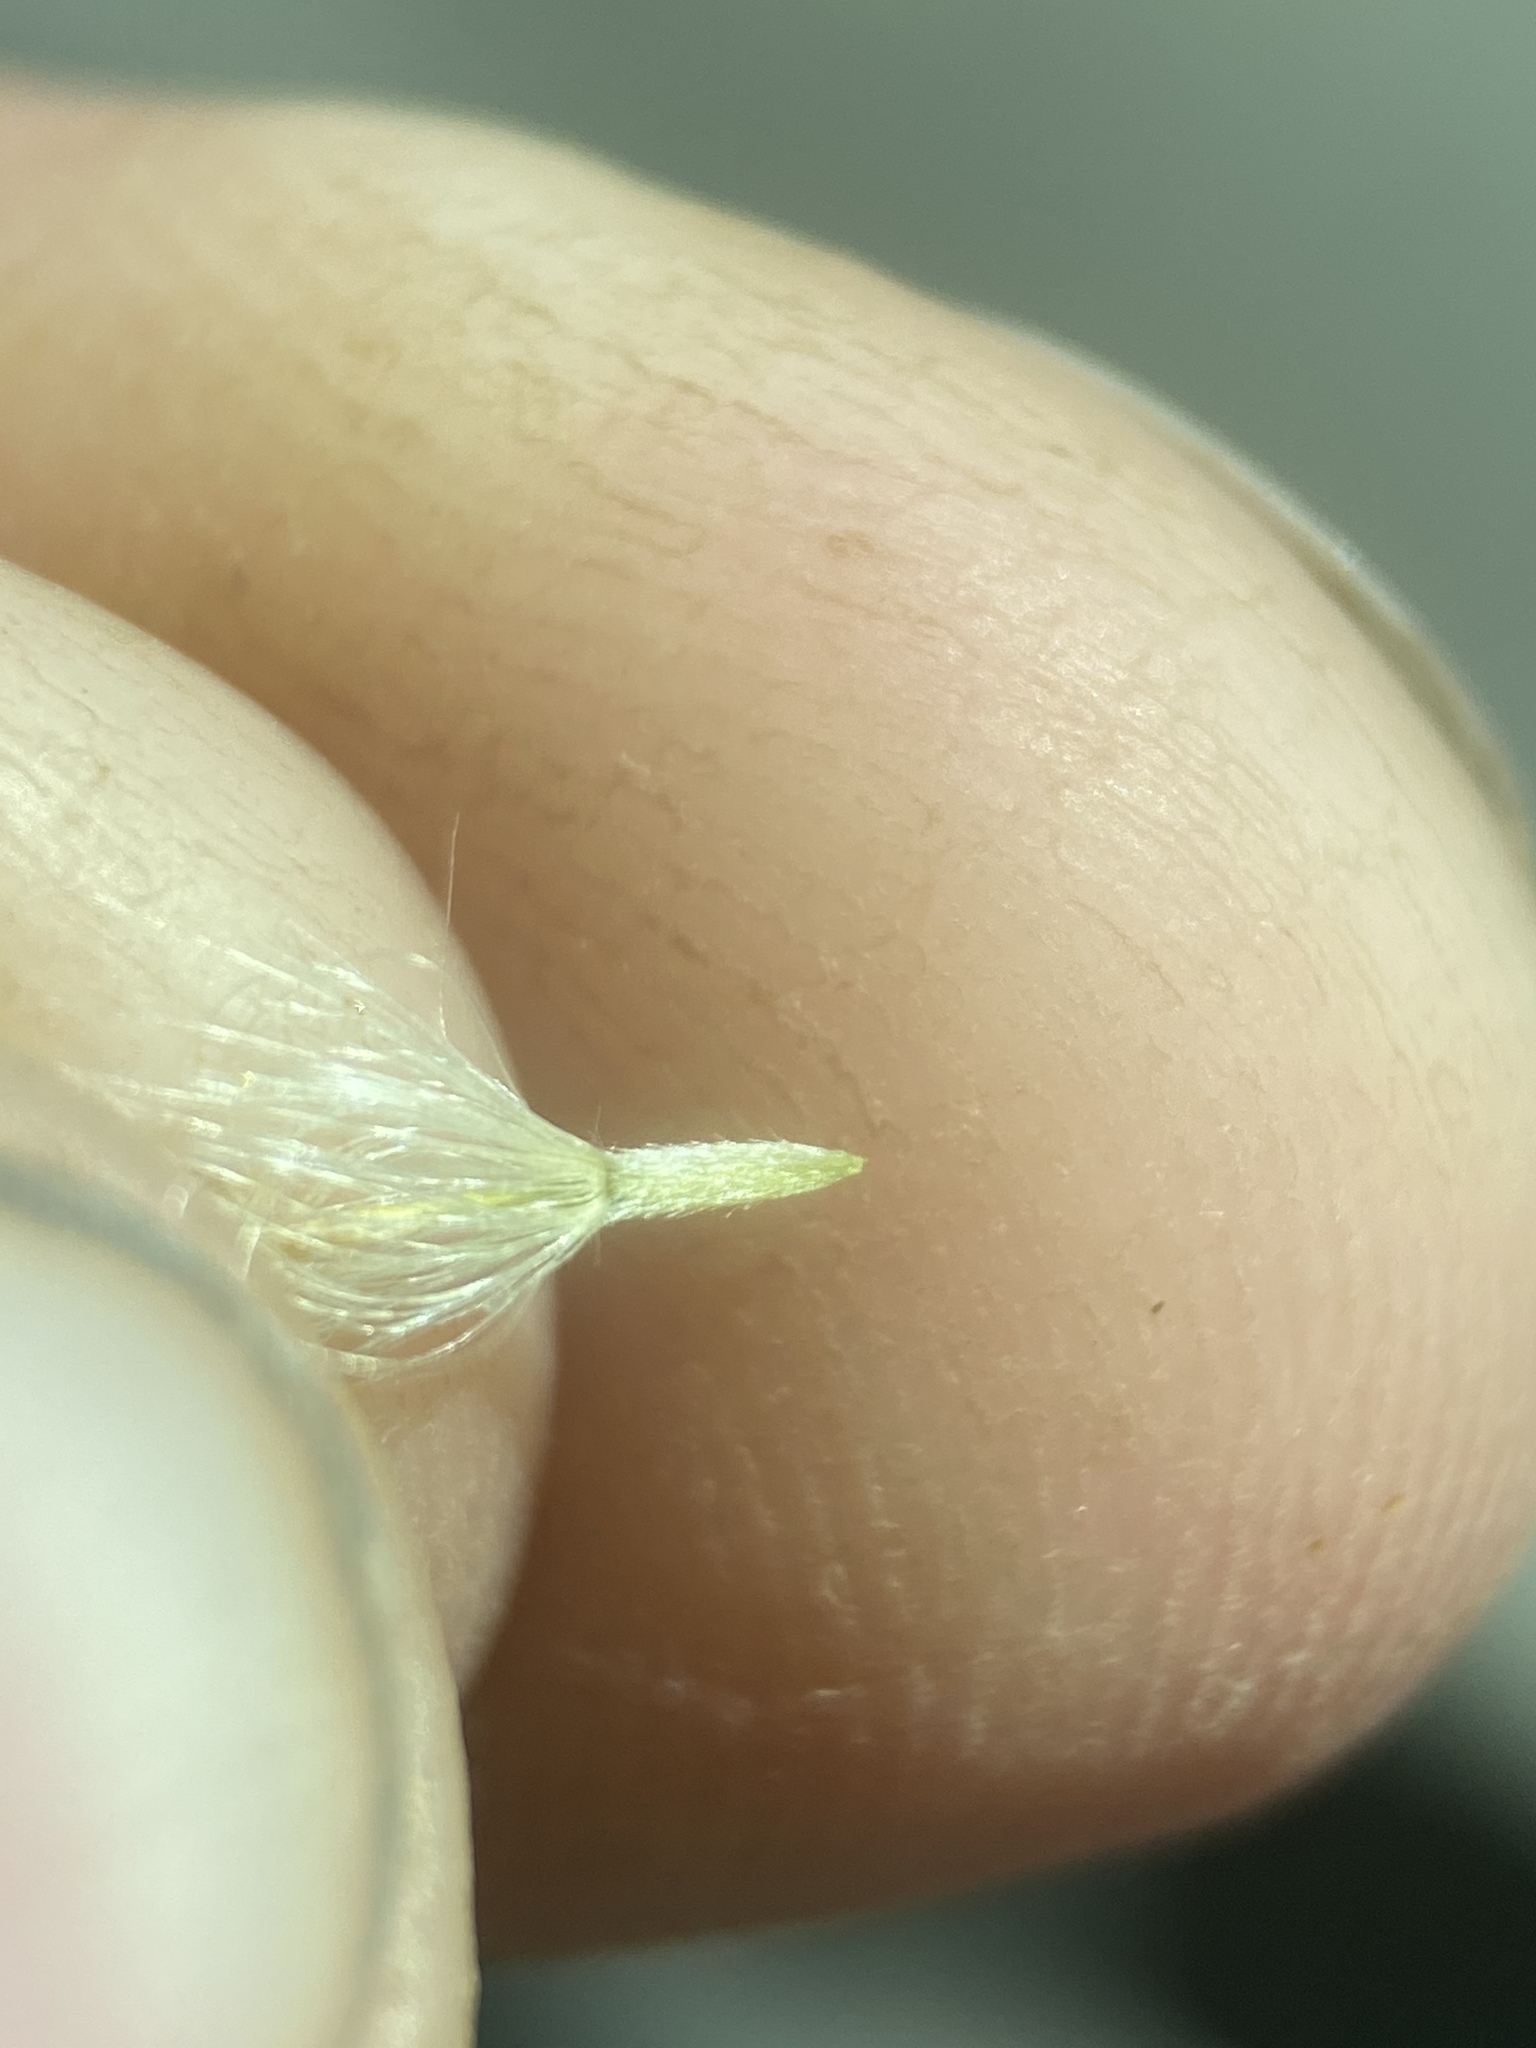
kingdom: Plantae
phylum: Tracheophyta
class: Magnoliopsida
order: Asterales
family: Asteraceae
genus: Ericameria
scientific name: Ericameria nauseosa
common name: Rubber rabbitbrush
